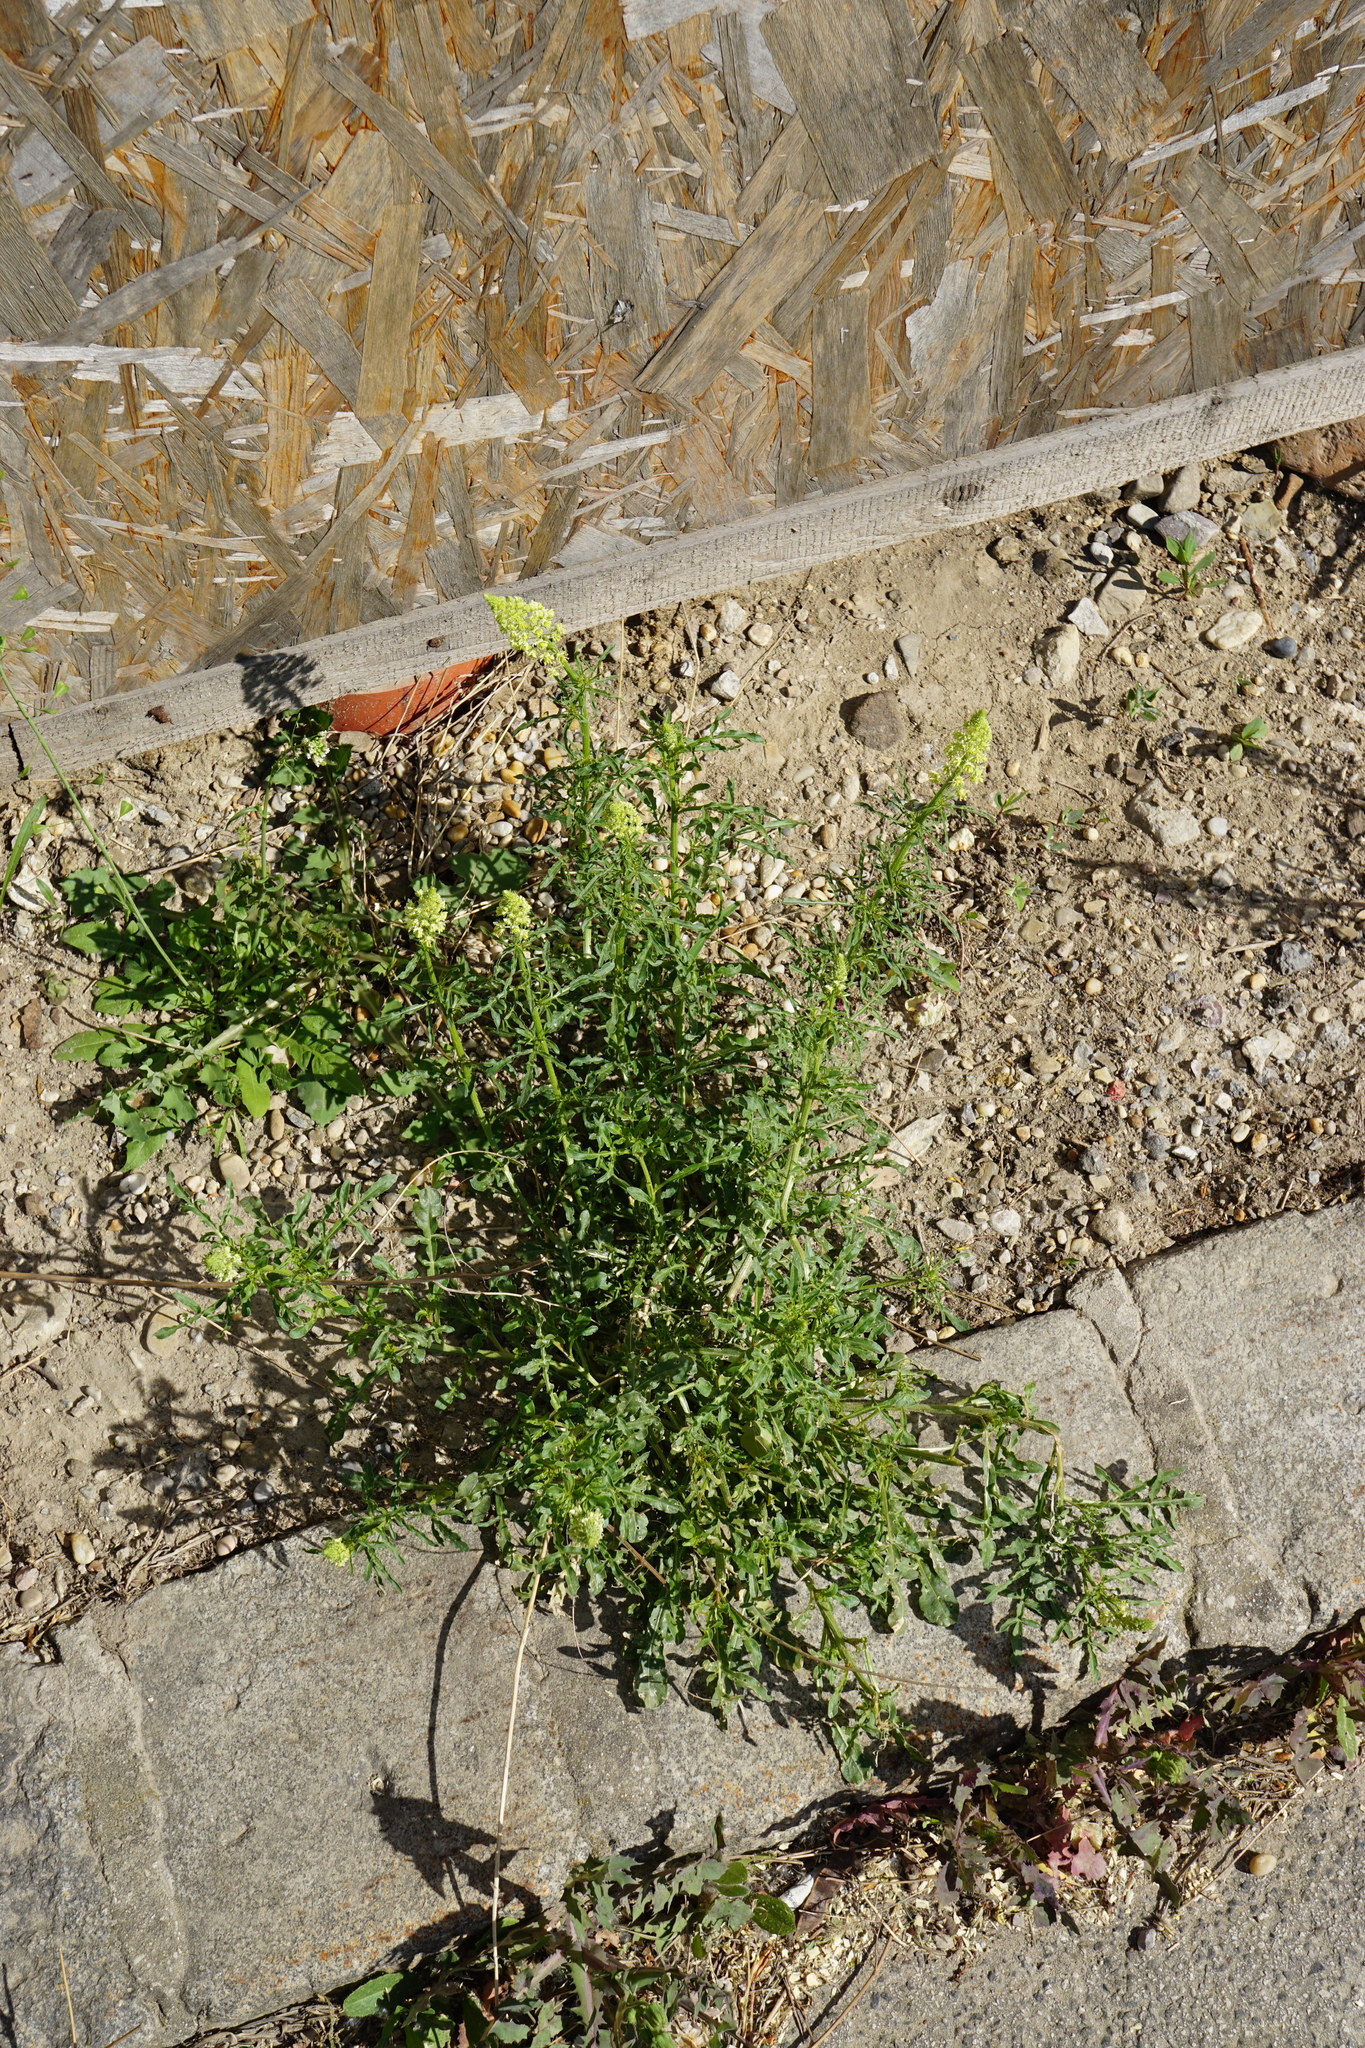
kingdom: Plantae
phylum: Tracheophyta
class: Magnoliopsida
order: Brassicales
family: Resedaceae
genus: Reseda
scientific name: Reseda lutea
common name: Wild mignonette
